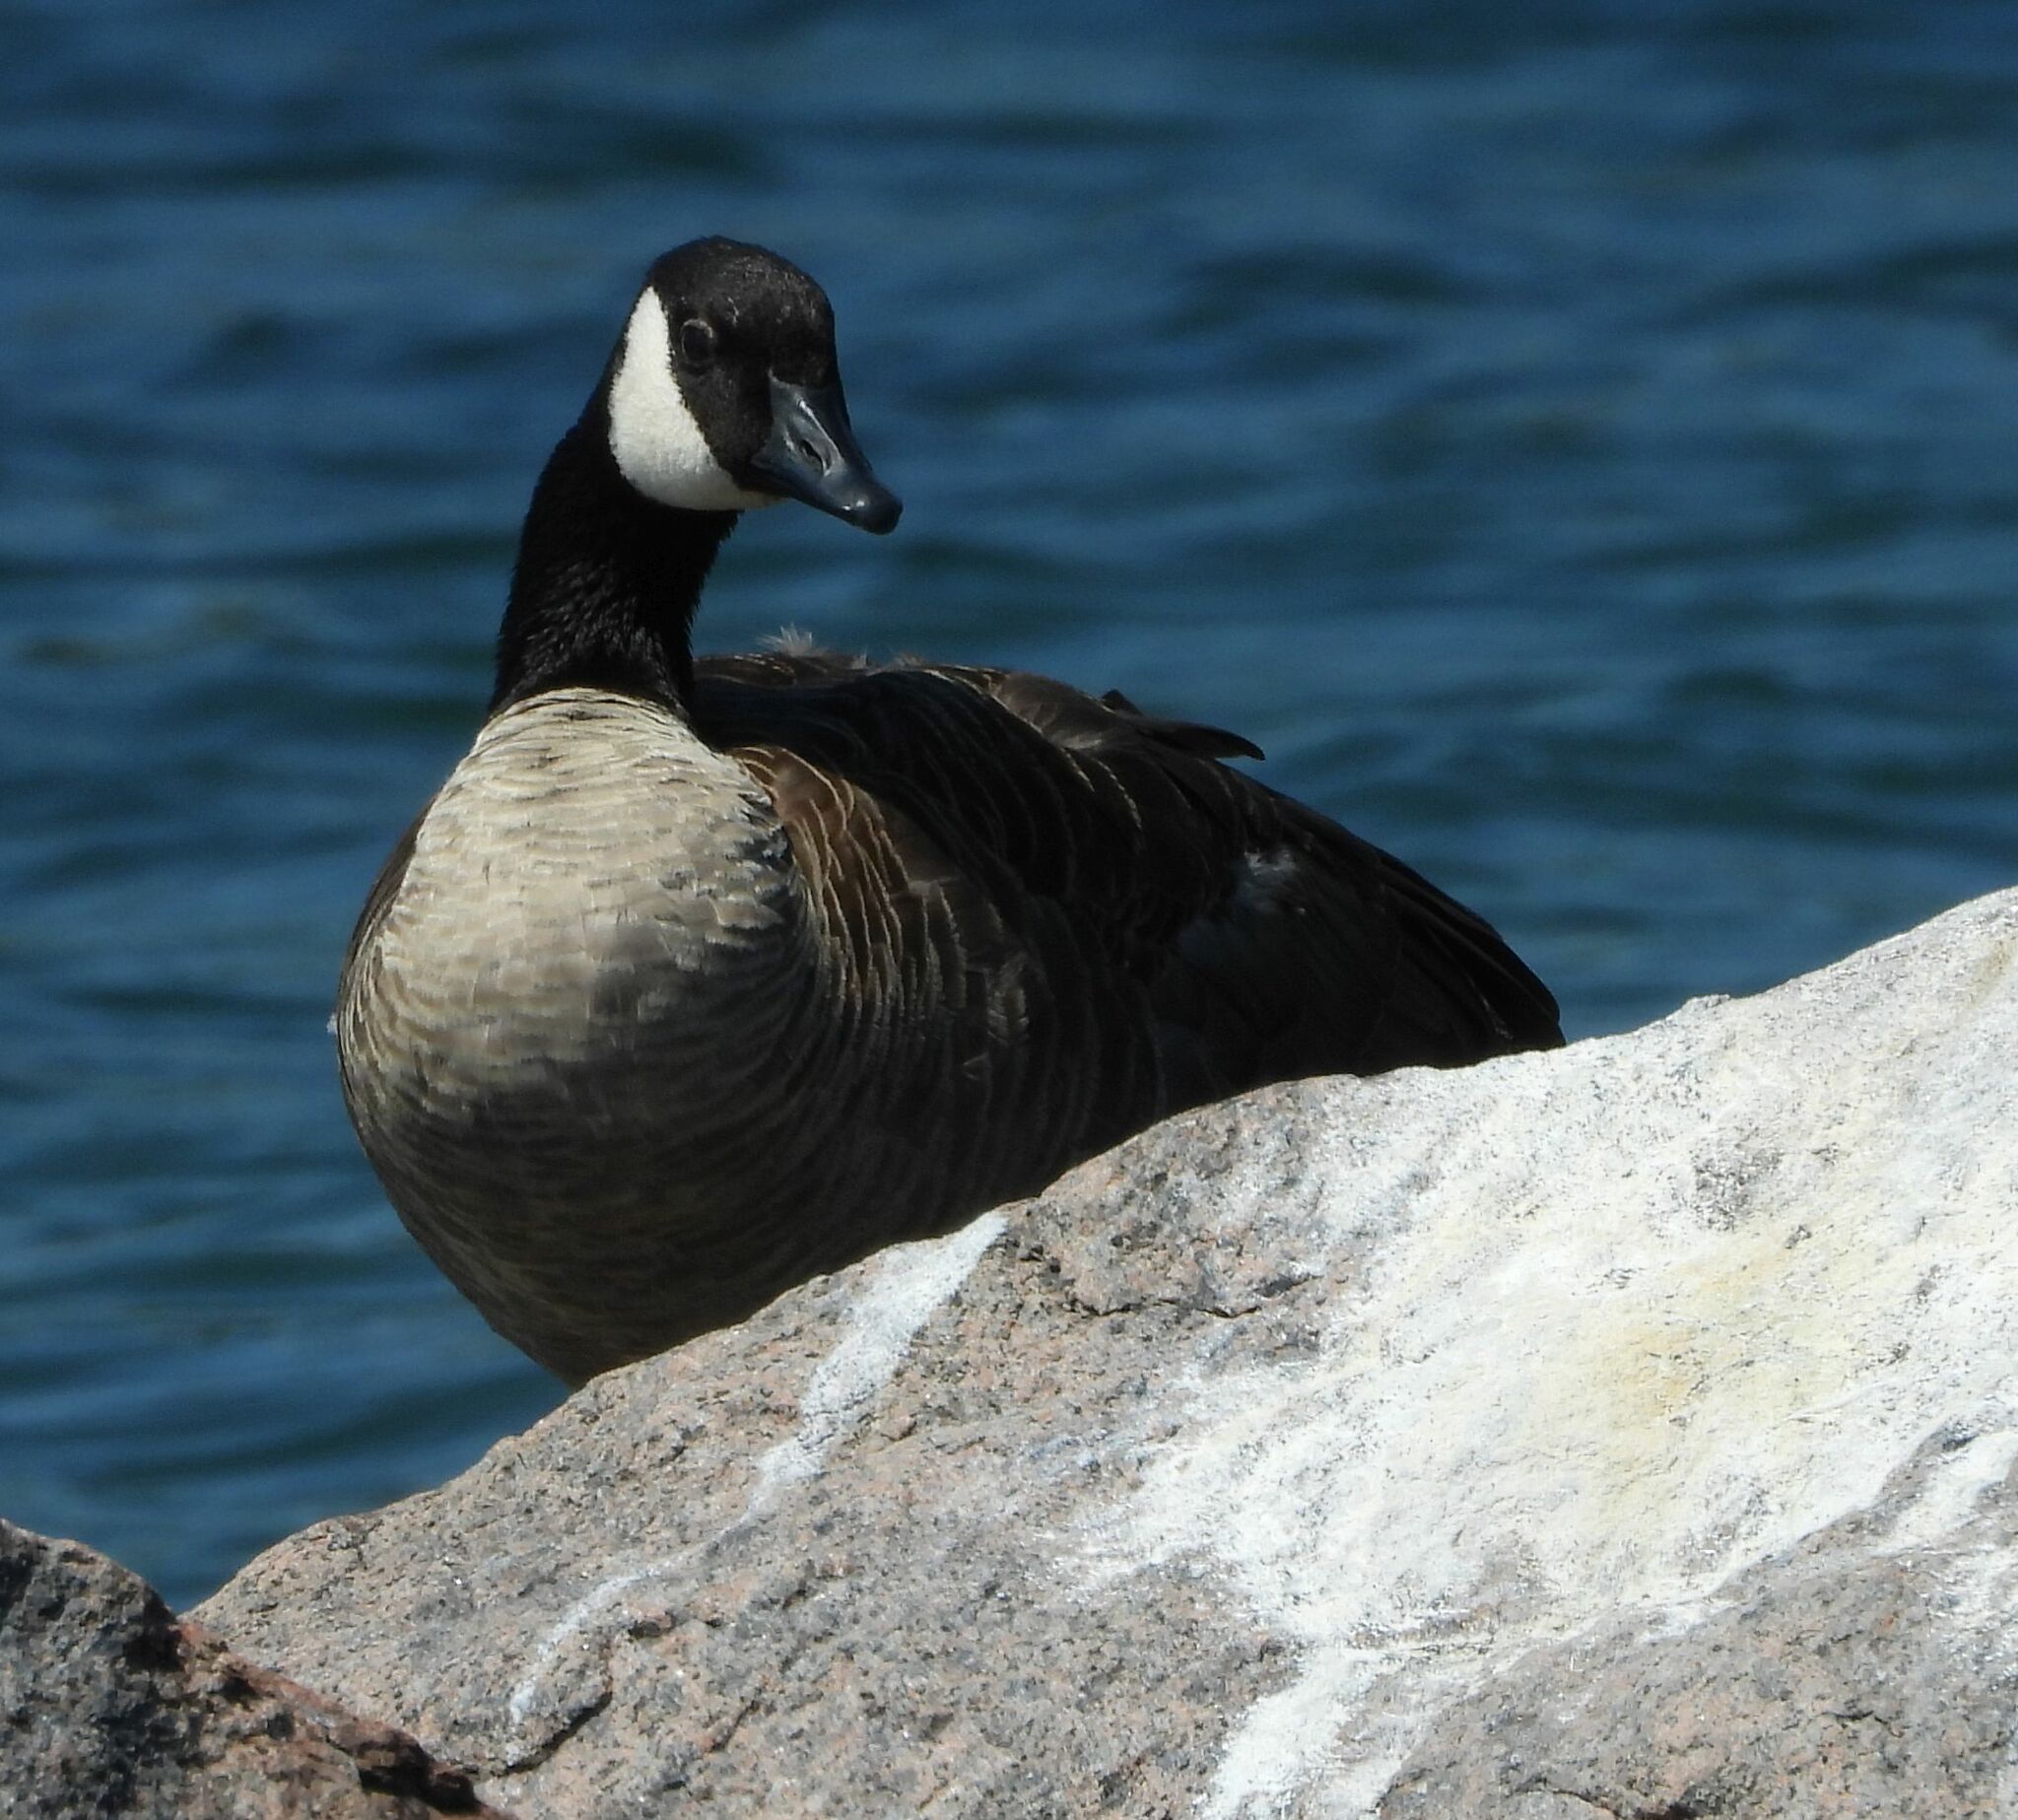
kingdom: Animalia
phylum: Chordata
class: Aves
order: Anseriformes
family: Anatidae
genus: Branta
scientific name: Branta canadensis
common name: Canada goose
